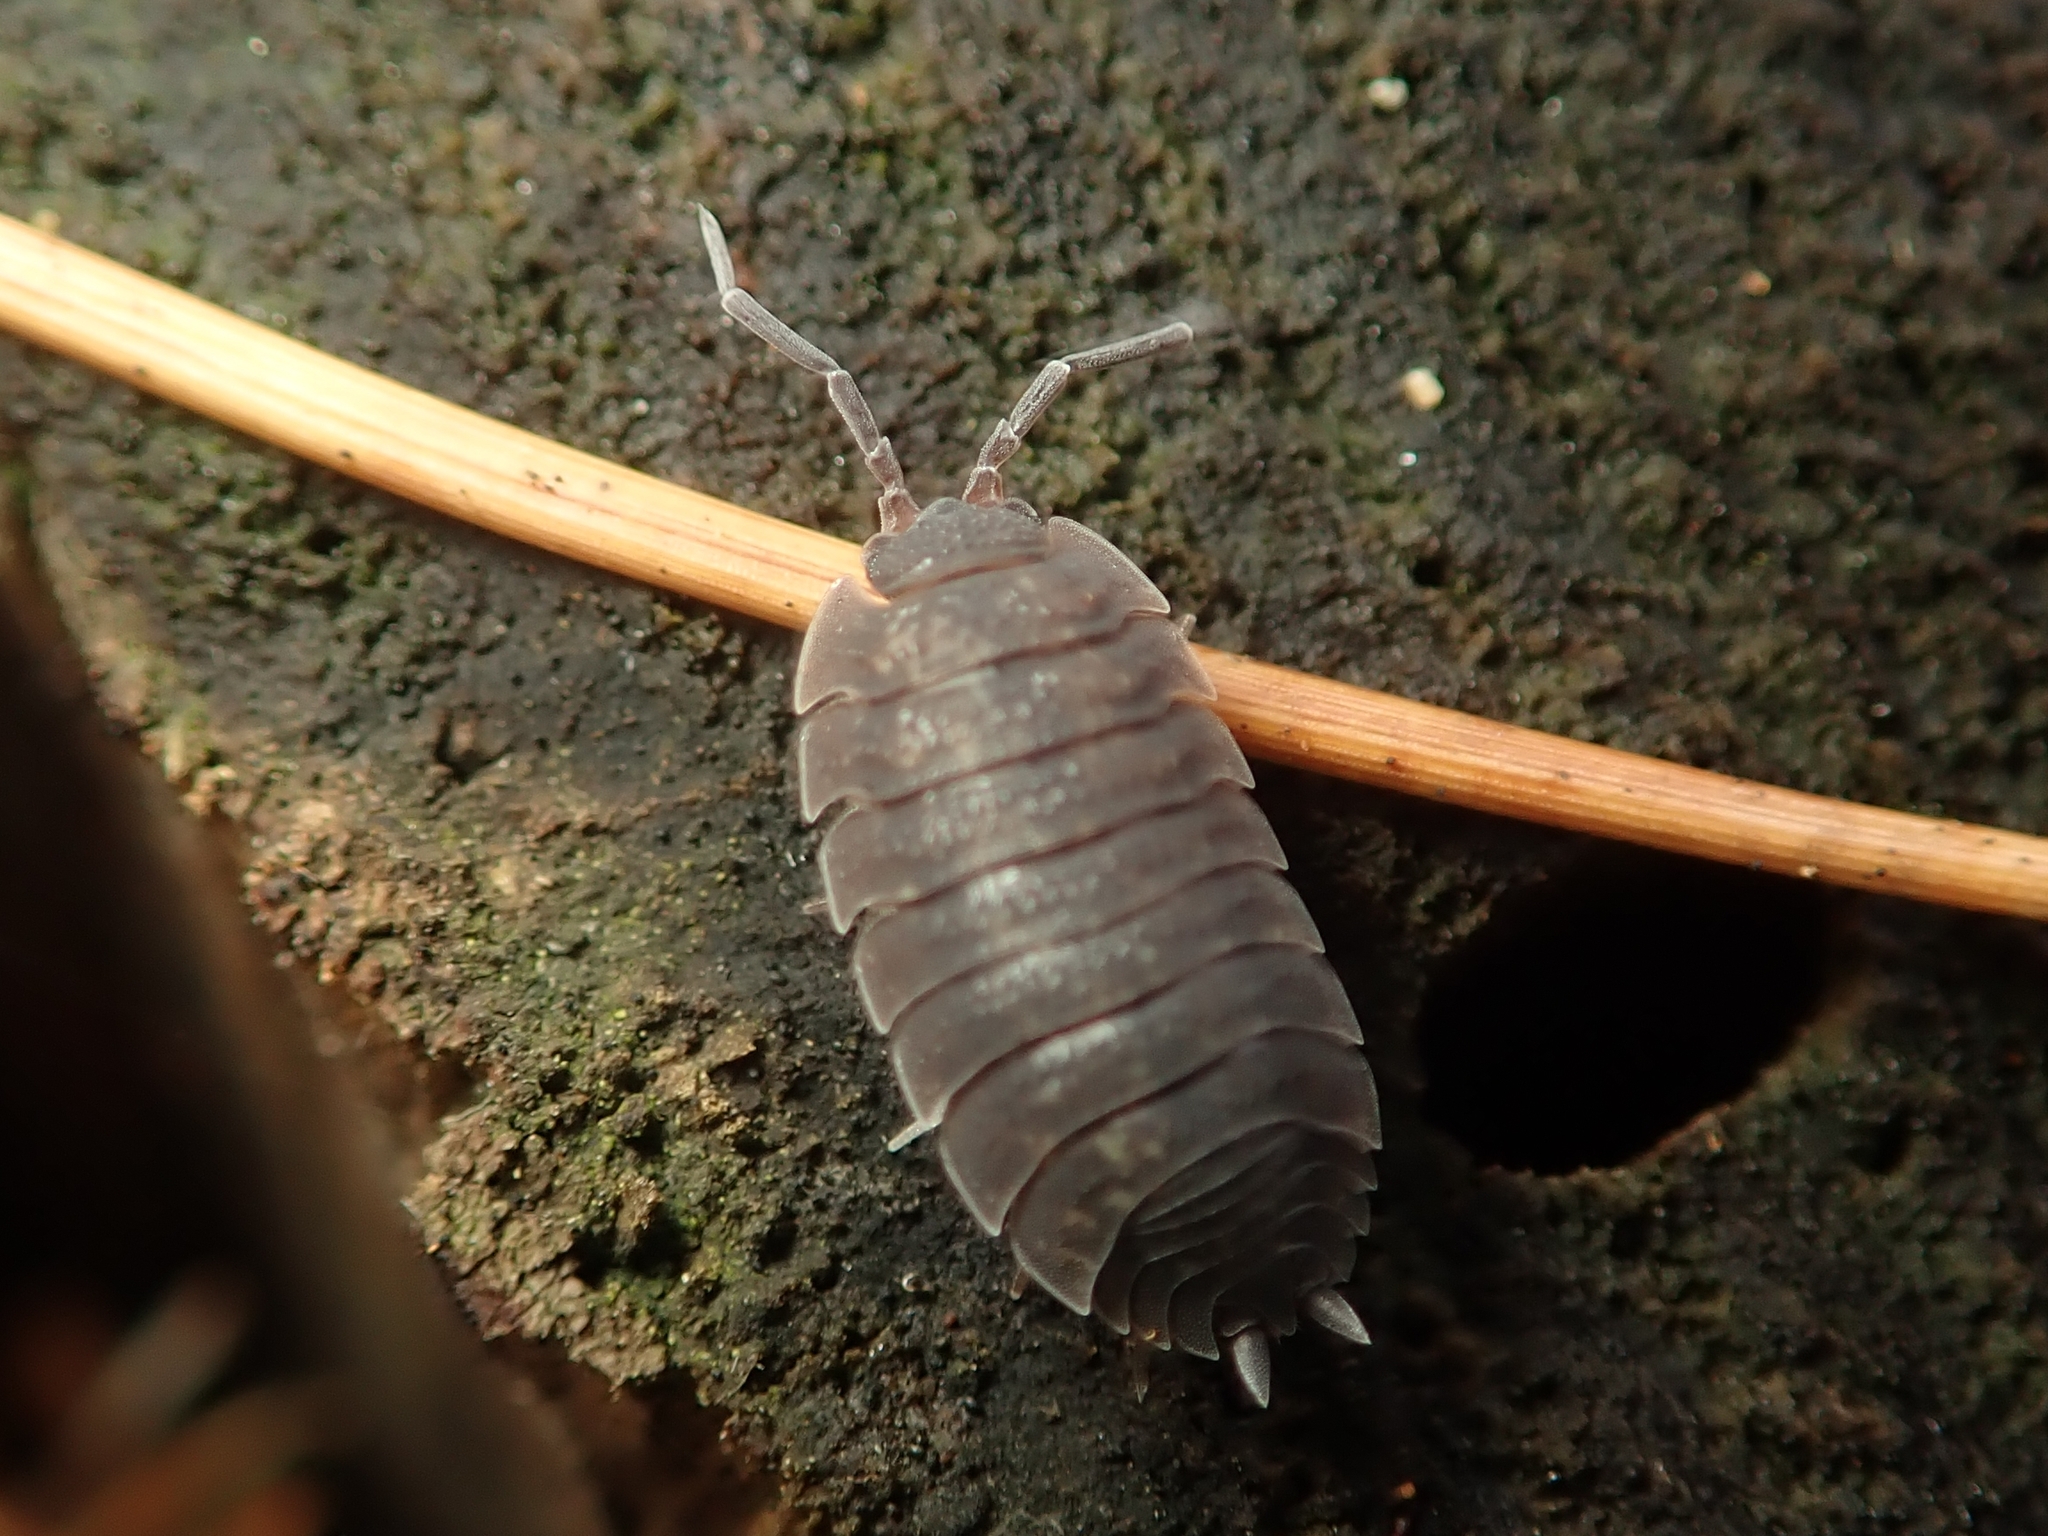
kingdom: Animalia
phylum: Arthropoda
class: Malacostraca
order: Isopoda
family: Porcellionidae
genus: Porcellio
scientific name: Porcellio scaber
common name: Common rough woodlouse
